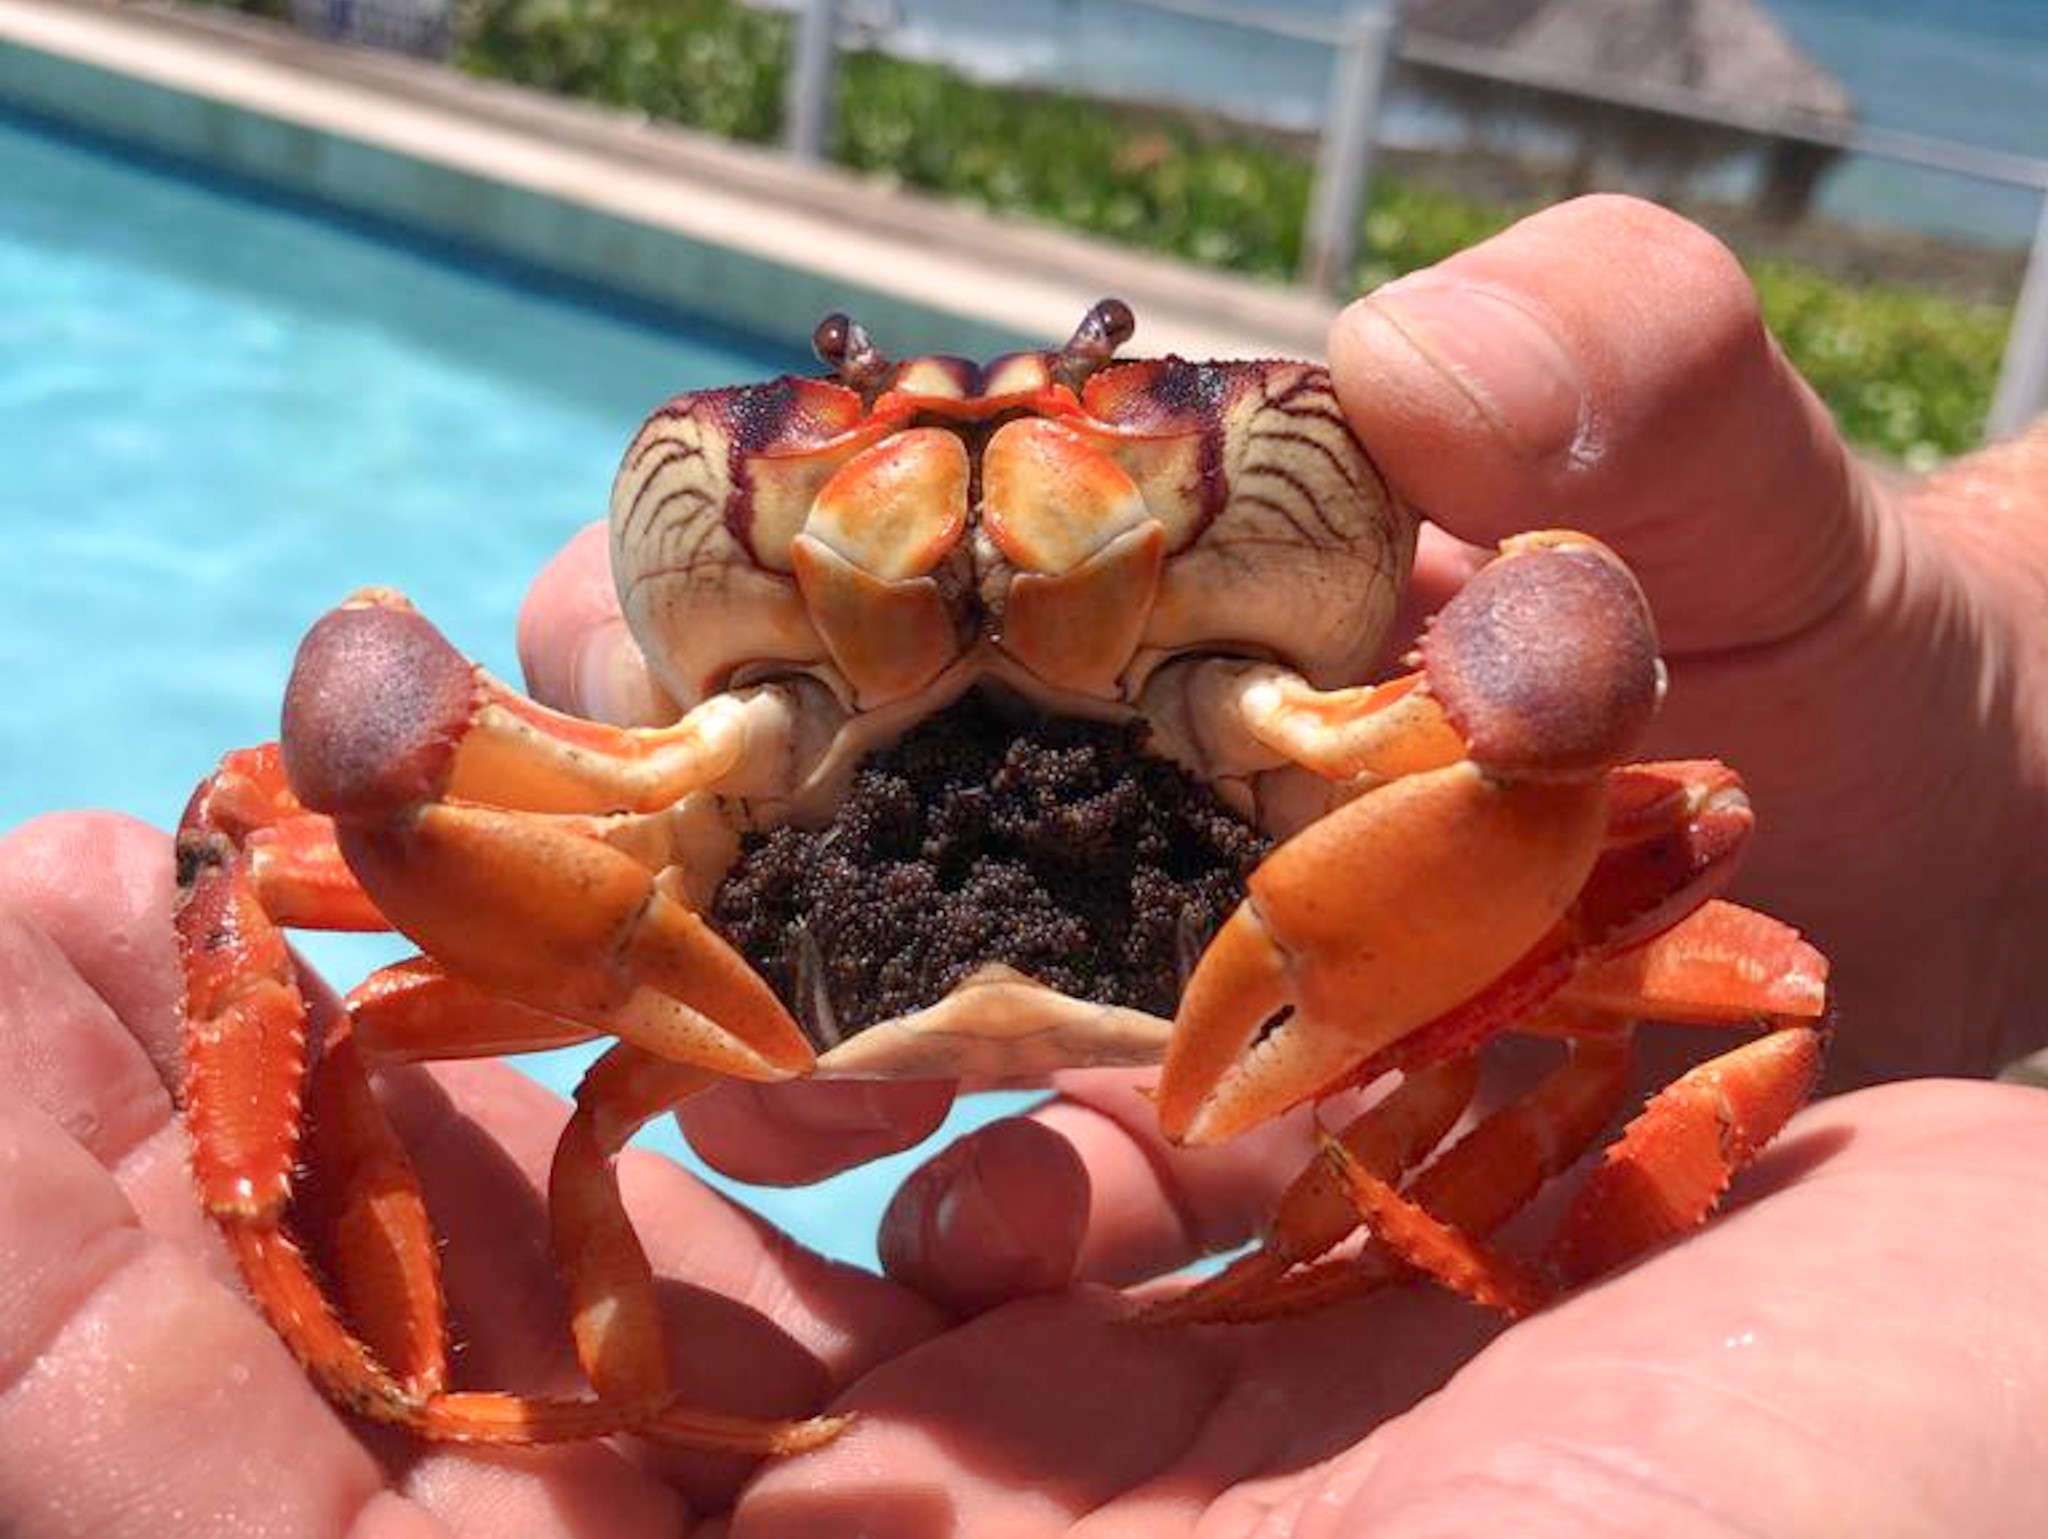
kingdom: Animalia
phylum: Arthropoda
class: Malacostraca
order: Decapoda
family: Gecarcinidae
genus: Gecarcinus
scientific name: Gecarcinus ruricola
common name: Black land crab
